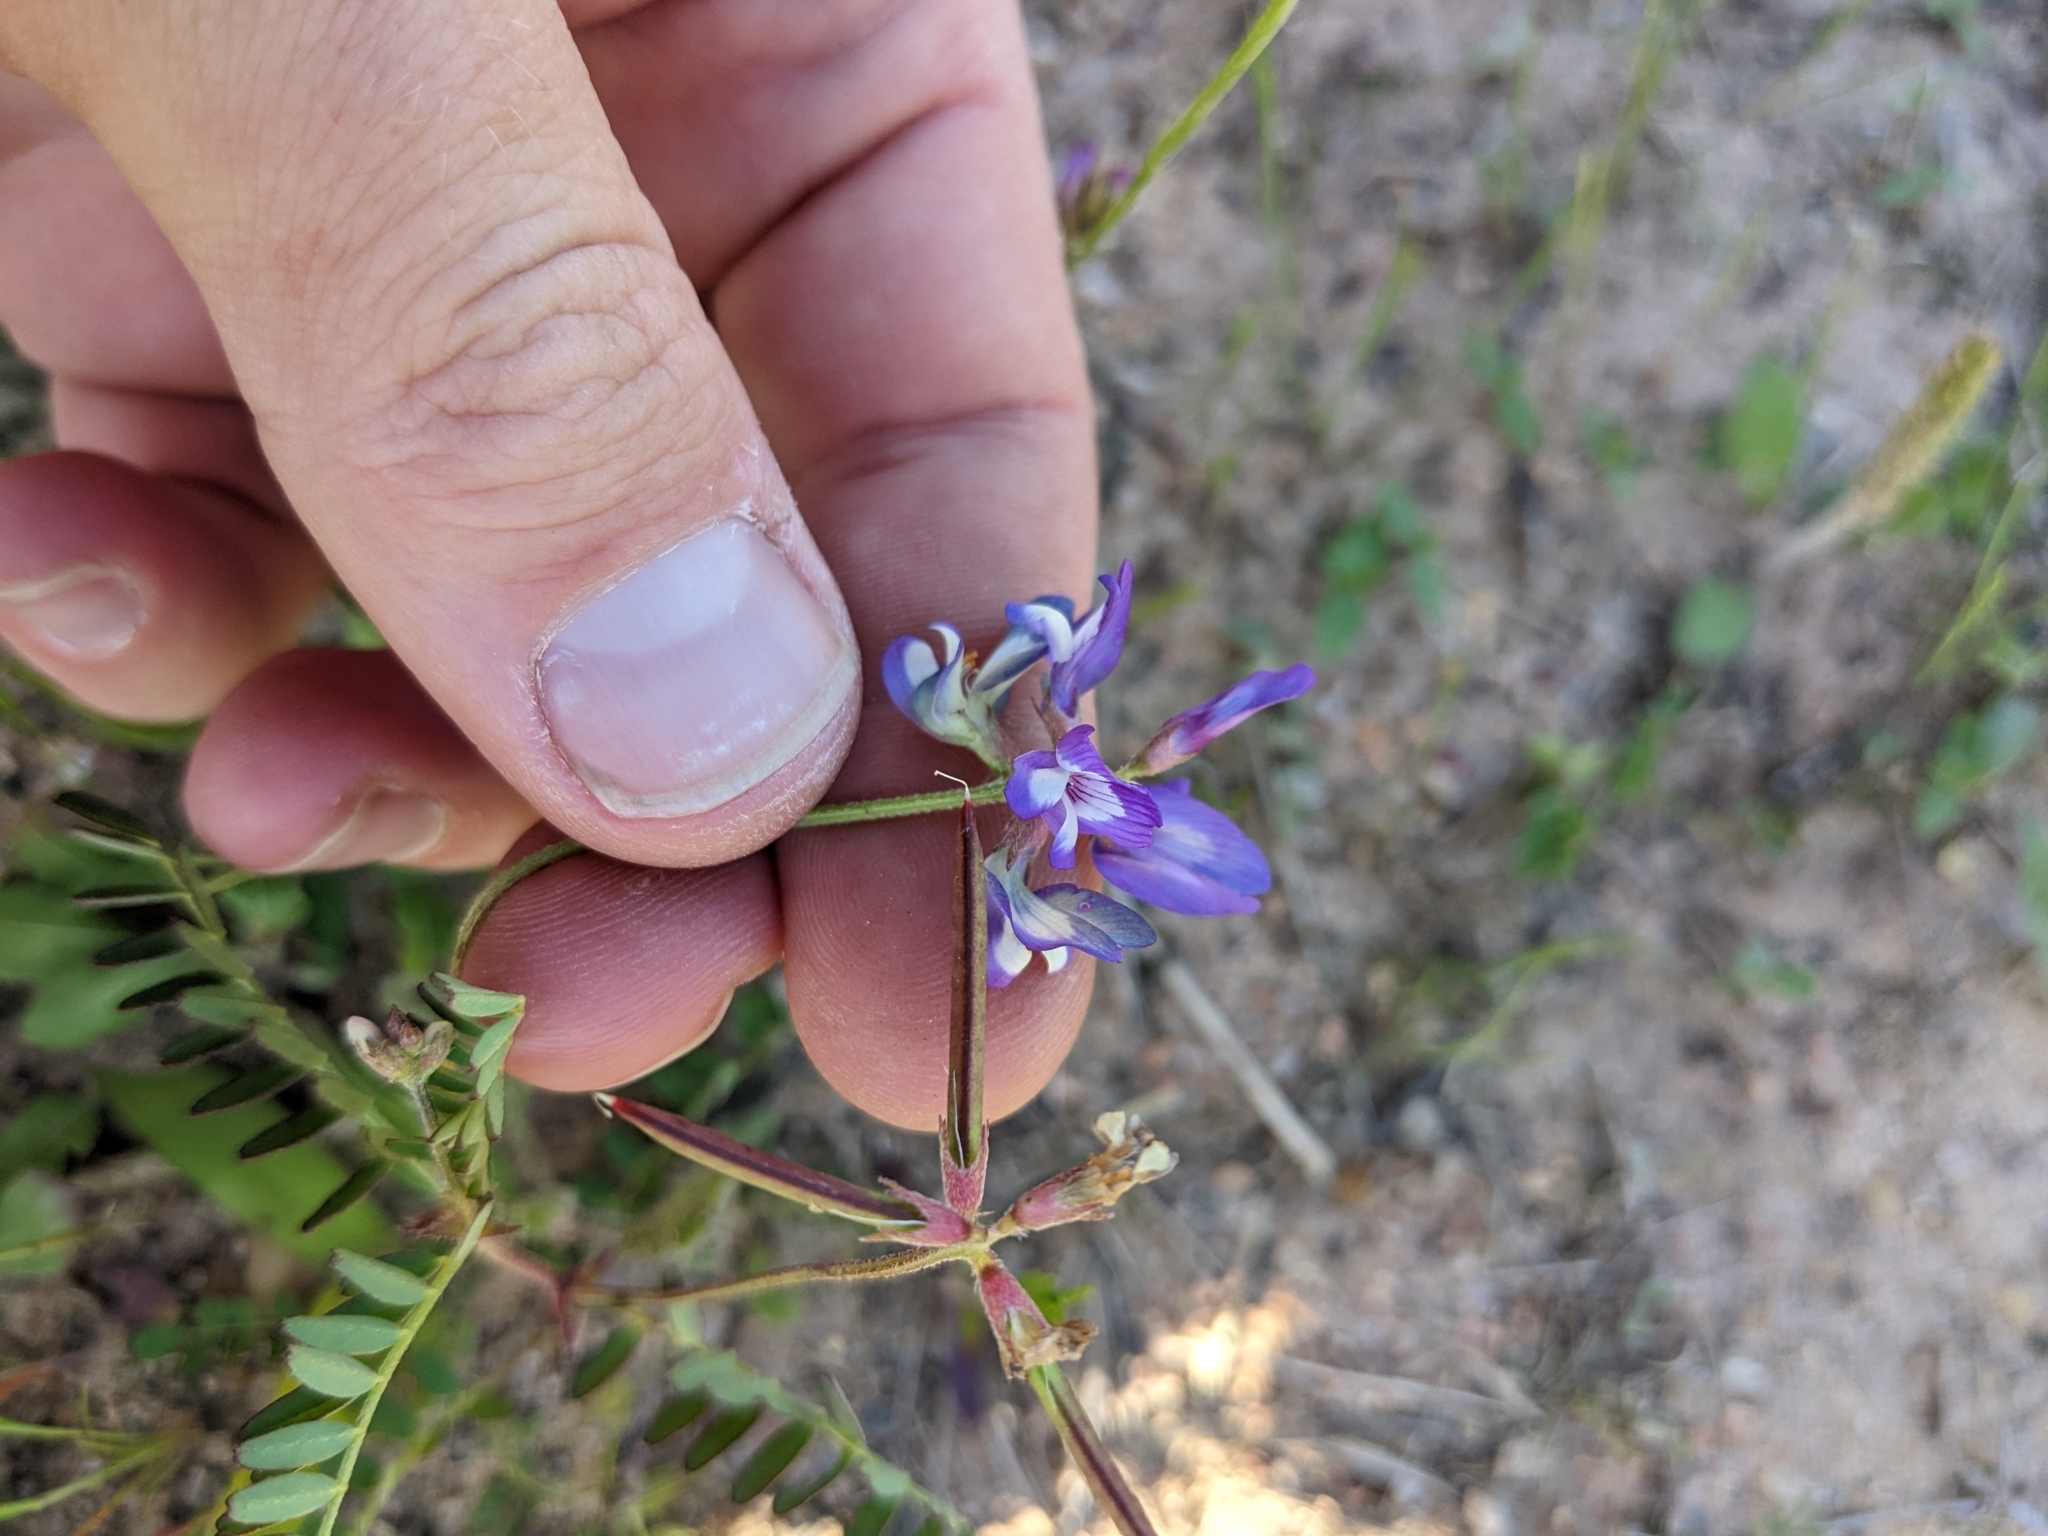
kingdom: Plantae
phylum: Tracheophyta
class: Magnoliopsida
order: Fabales
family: Fabaceae
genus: Astragalus
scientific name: Astragalus leptocarpus
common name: Bodkin milk-vetch
